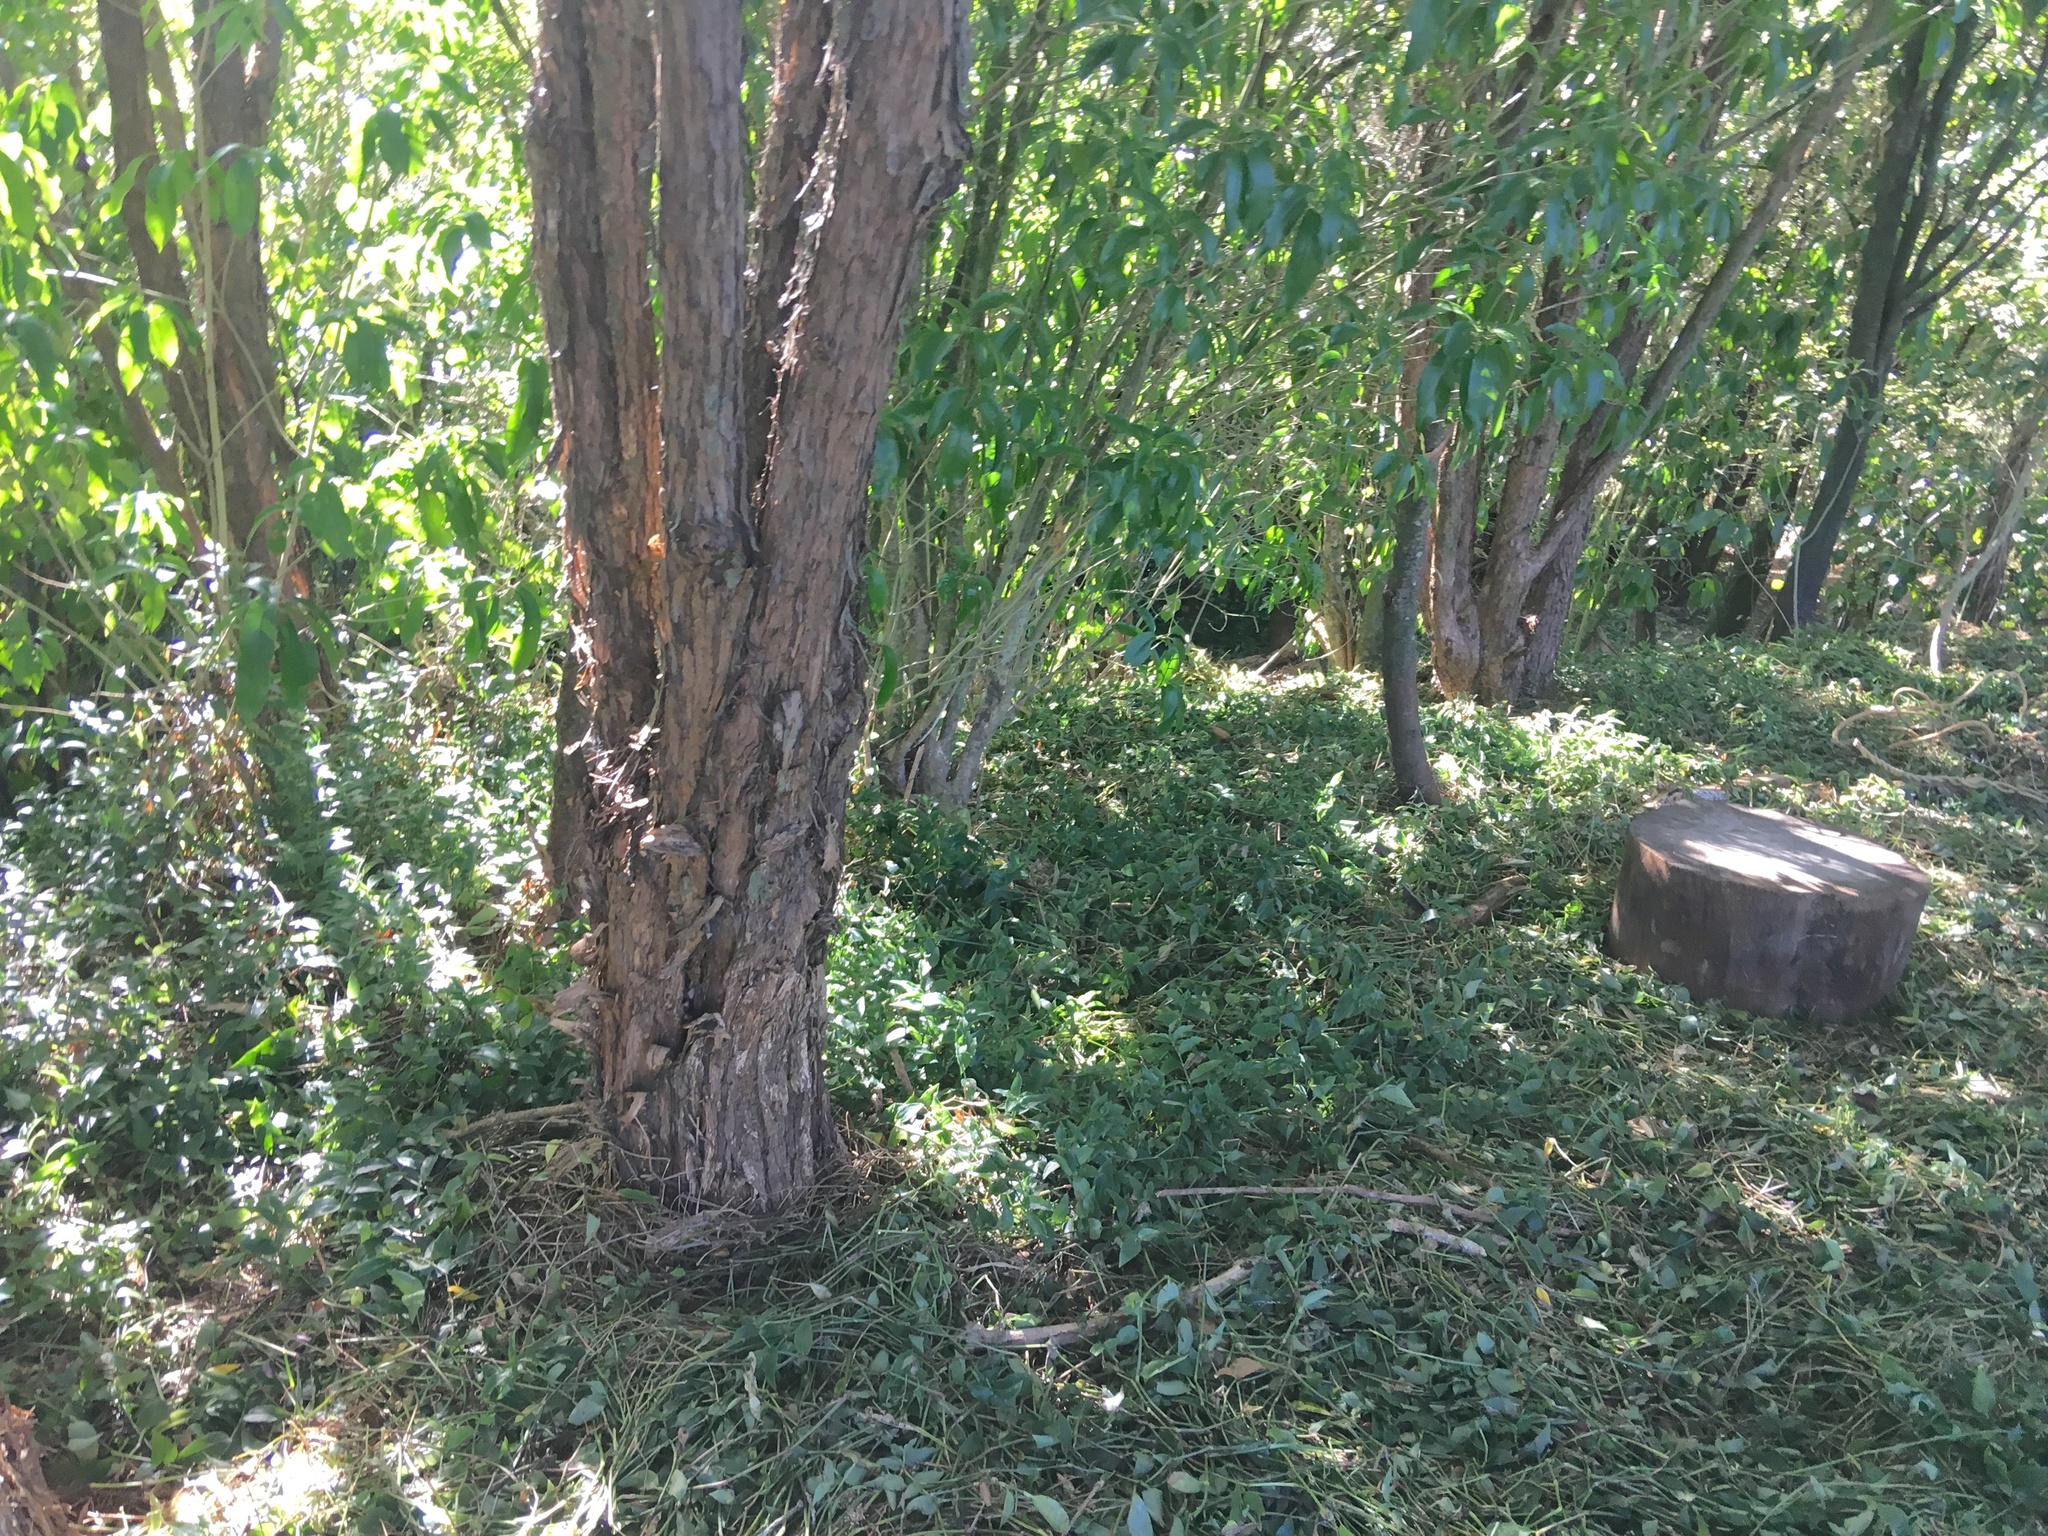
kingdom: Plantae
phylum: Tracheophyta
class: Liliopsida
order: Commelinales
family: Commelinaceae
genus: Tradescantia
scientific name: Tradescantia fluminensis
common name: Wandering-jew
